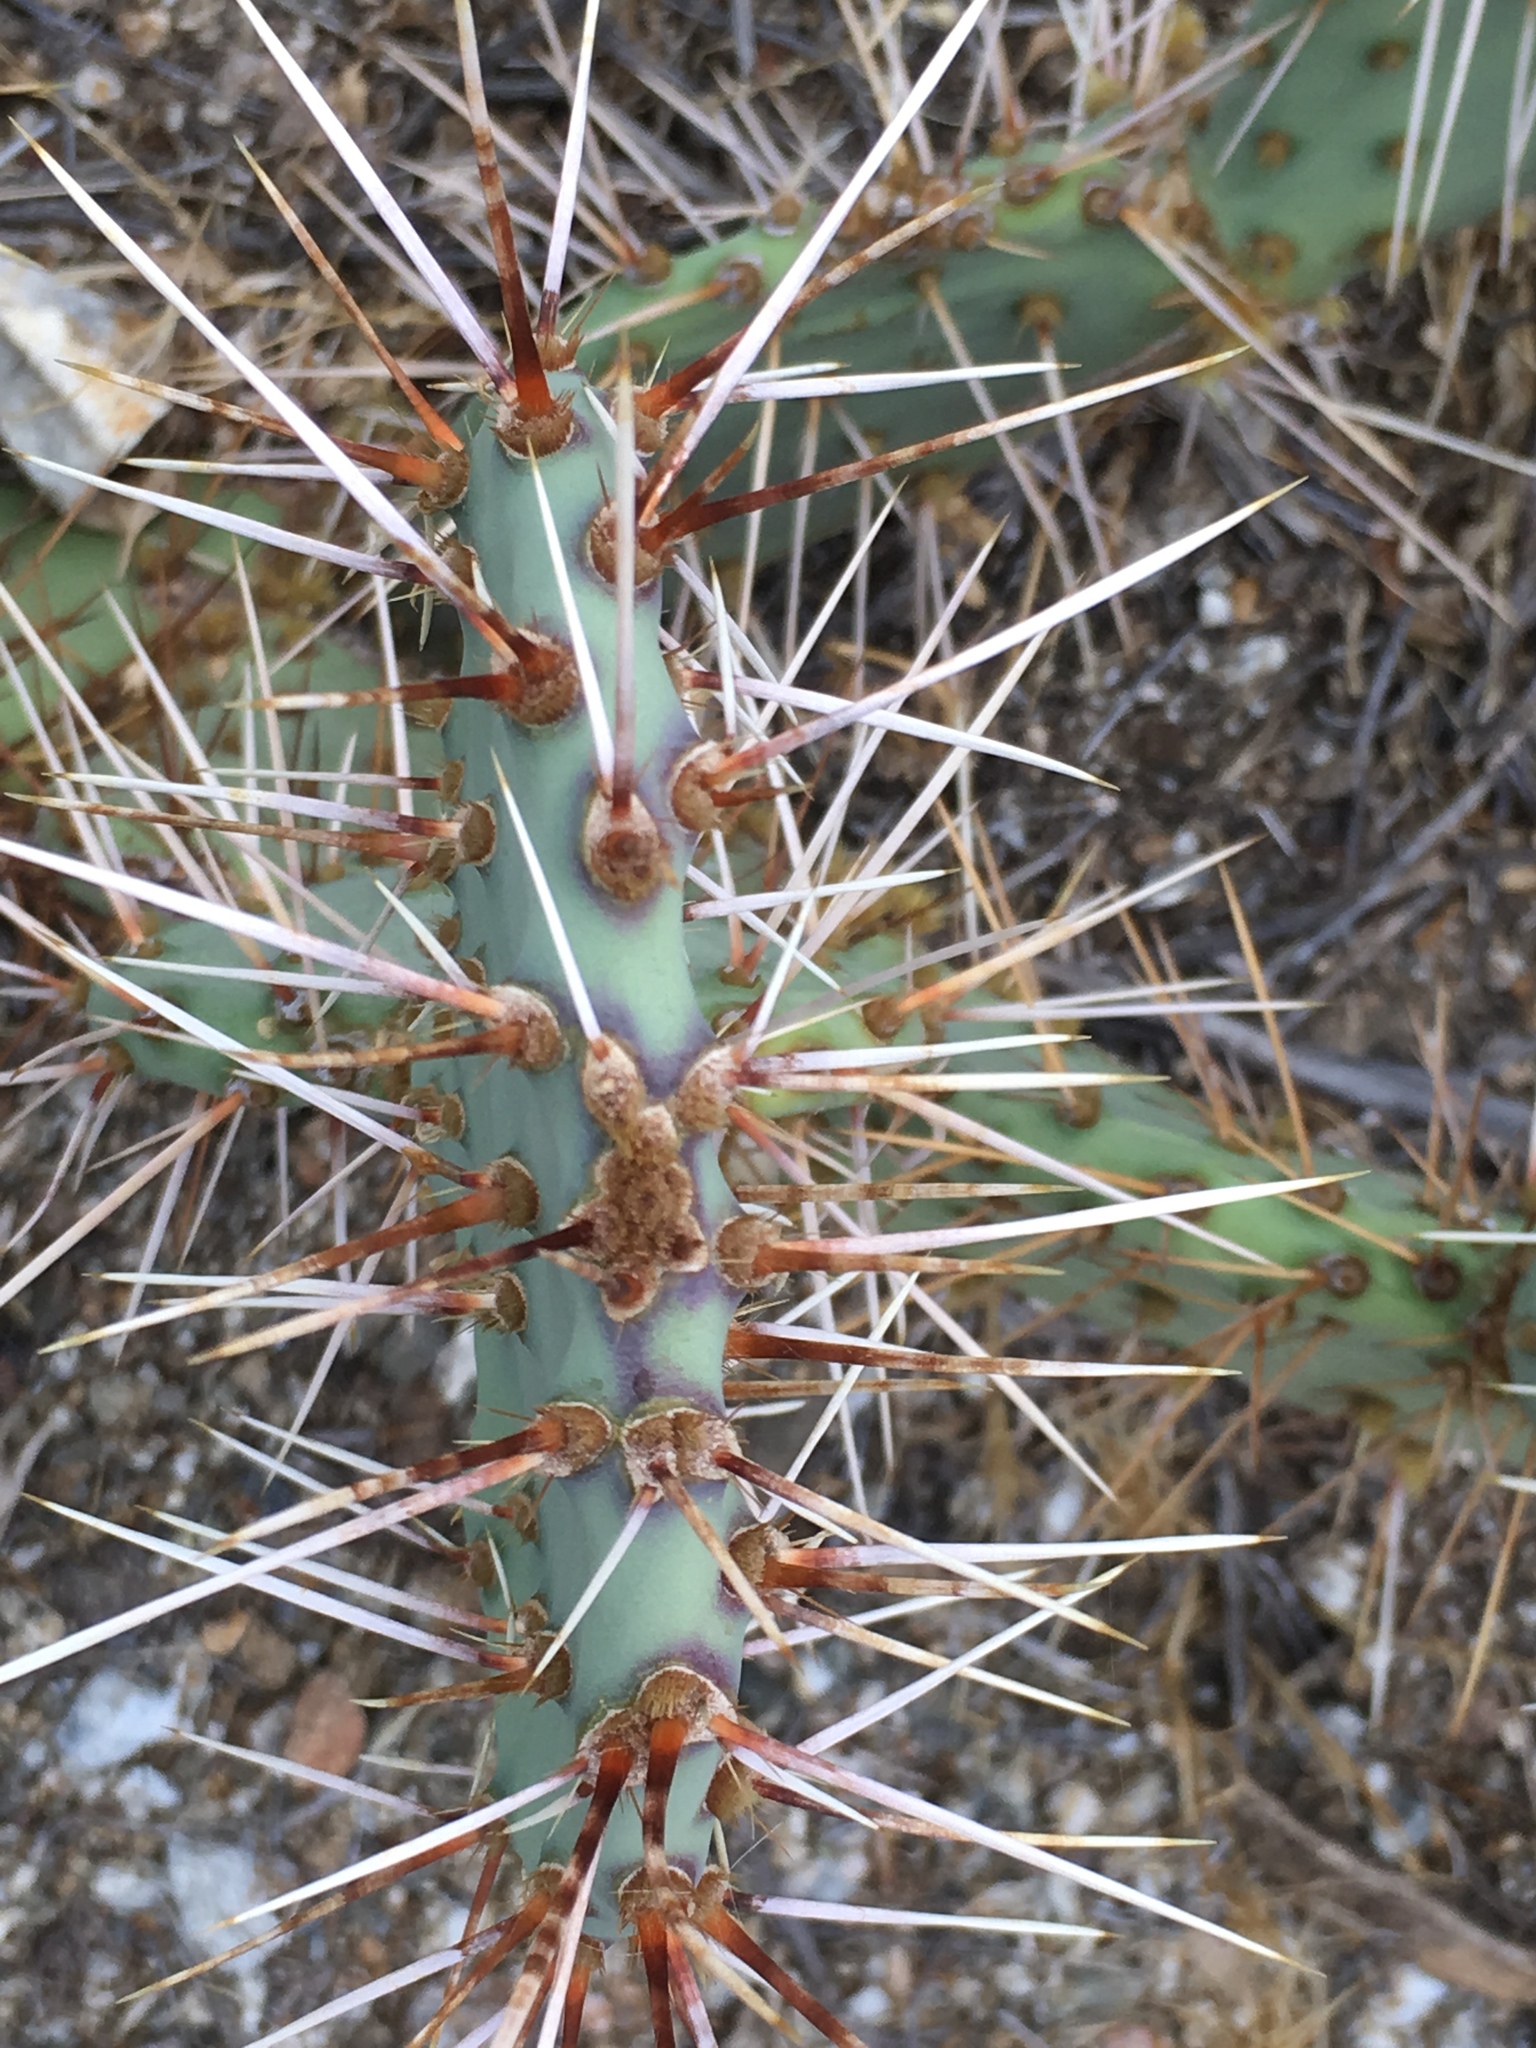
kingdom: Plantae
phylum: Tracheophyta
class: Magnoliopsida
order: Caryophyllales
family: Cactaceae
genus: Opuntia
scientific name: Opuntia phaeacantha
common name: New mexico prickly-pear
